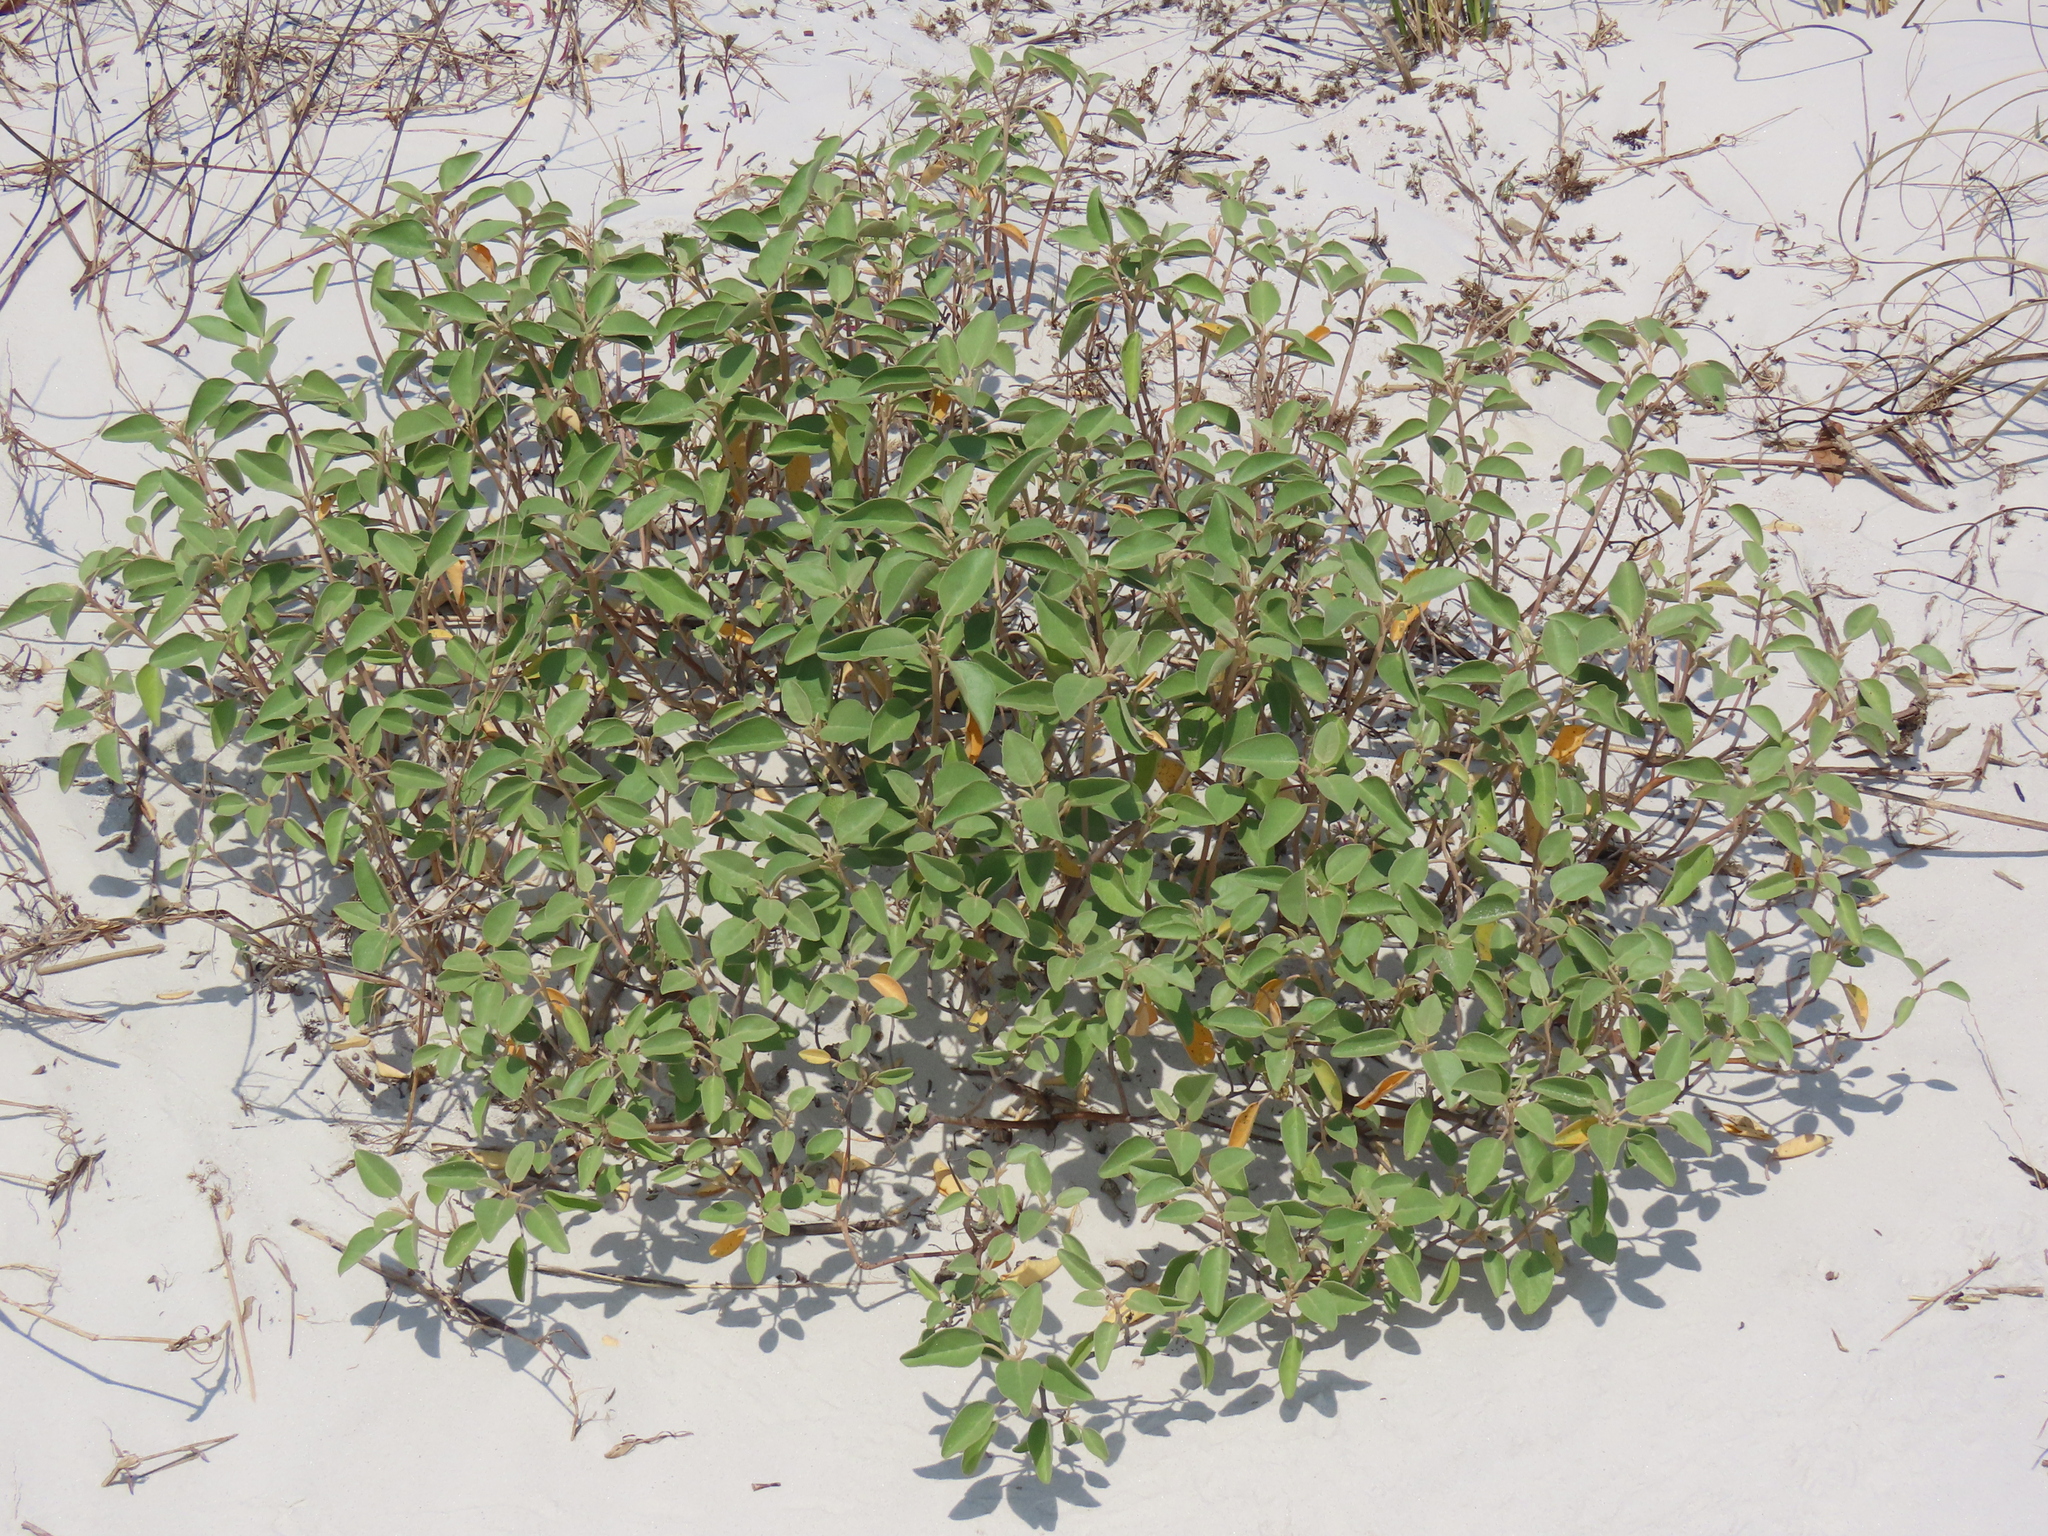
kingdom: Plantae
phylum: Tracheophyta
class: Magnoliopsida
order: Malpighiales
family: Euphorbiaceae
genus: Croton
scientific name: Croton punctatus
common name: Beach-tea
